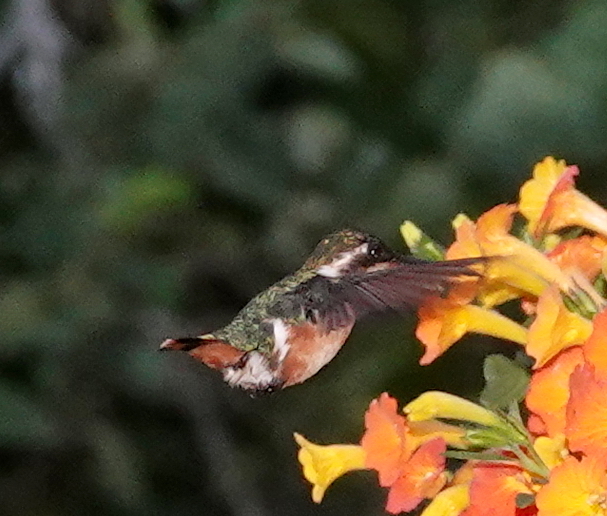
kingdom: Animalia
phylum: Chordata
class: Aves
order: Apodiformes
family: Trochilidae
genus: Chaetocercus
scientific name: Chaetocercus astreans
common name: Santa marta woodstar
